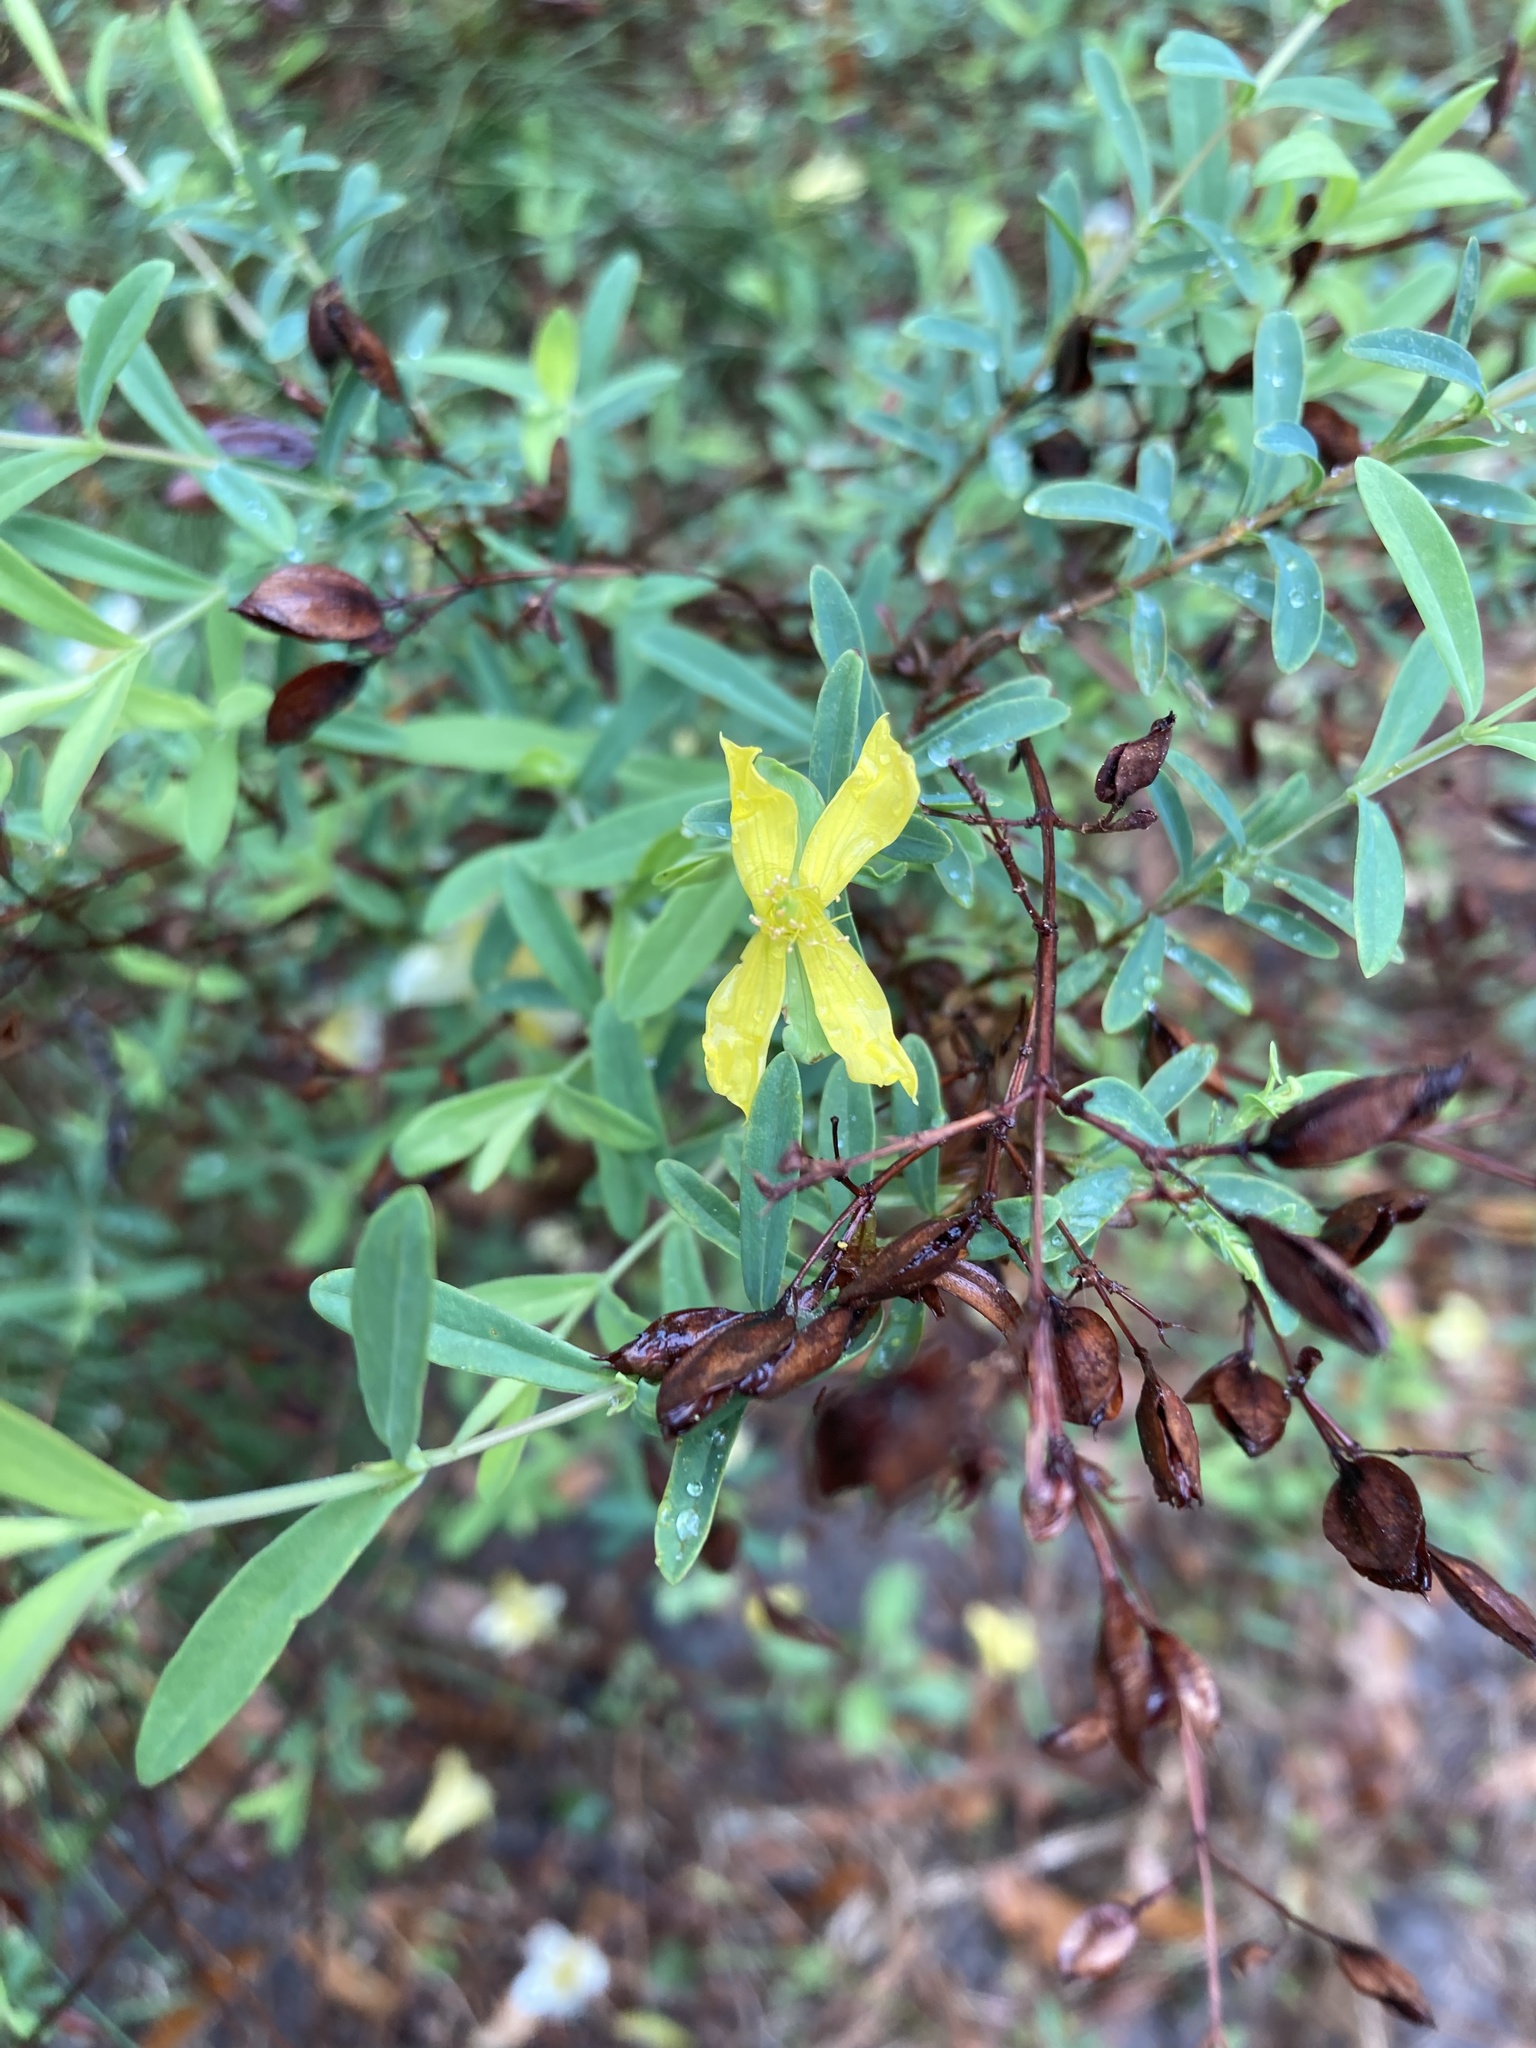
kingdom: Plantae
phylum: Tracheophyta
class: Magnoliopsida
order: Malpighiales
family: Hypericaceae
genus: Hypericum
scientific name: Hypericum hypericoides
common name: St. andrew's cross
